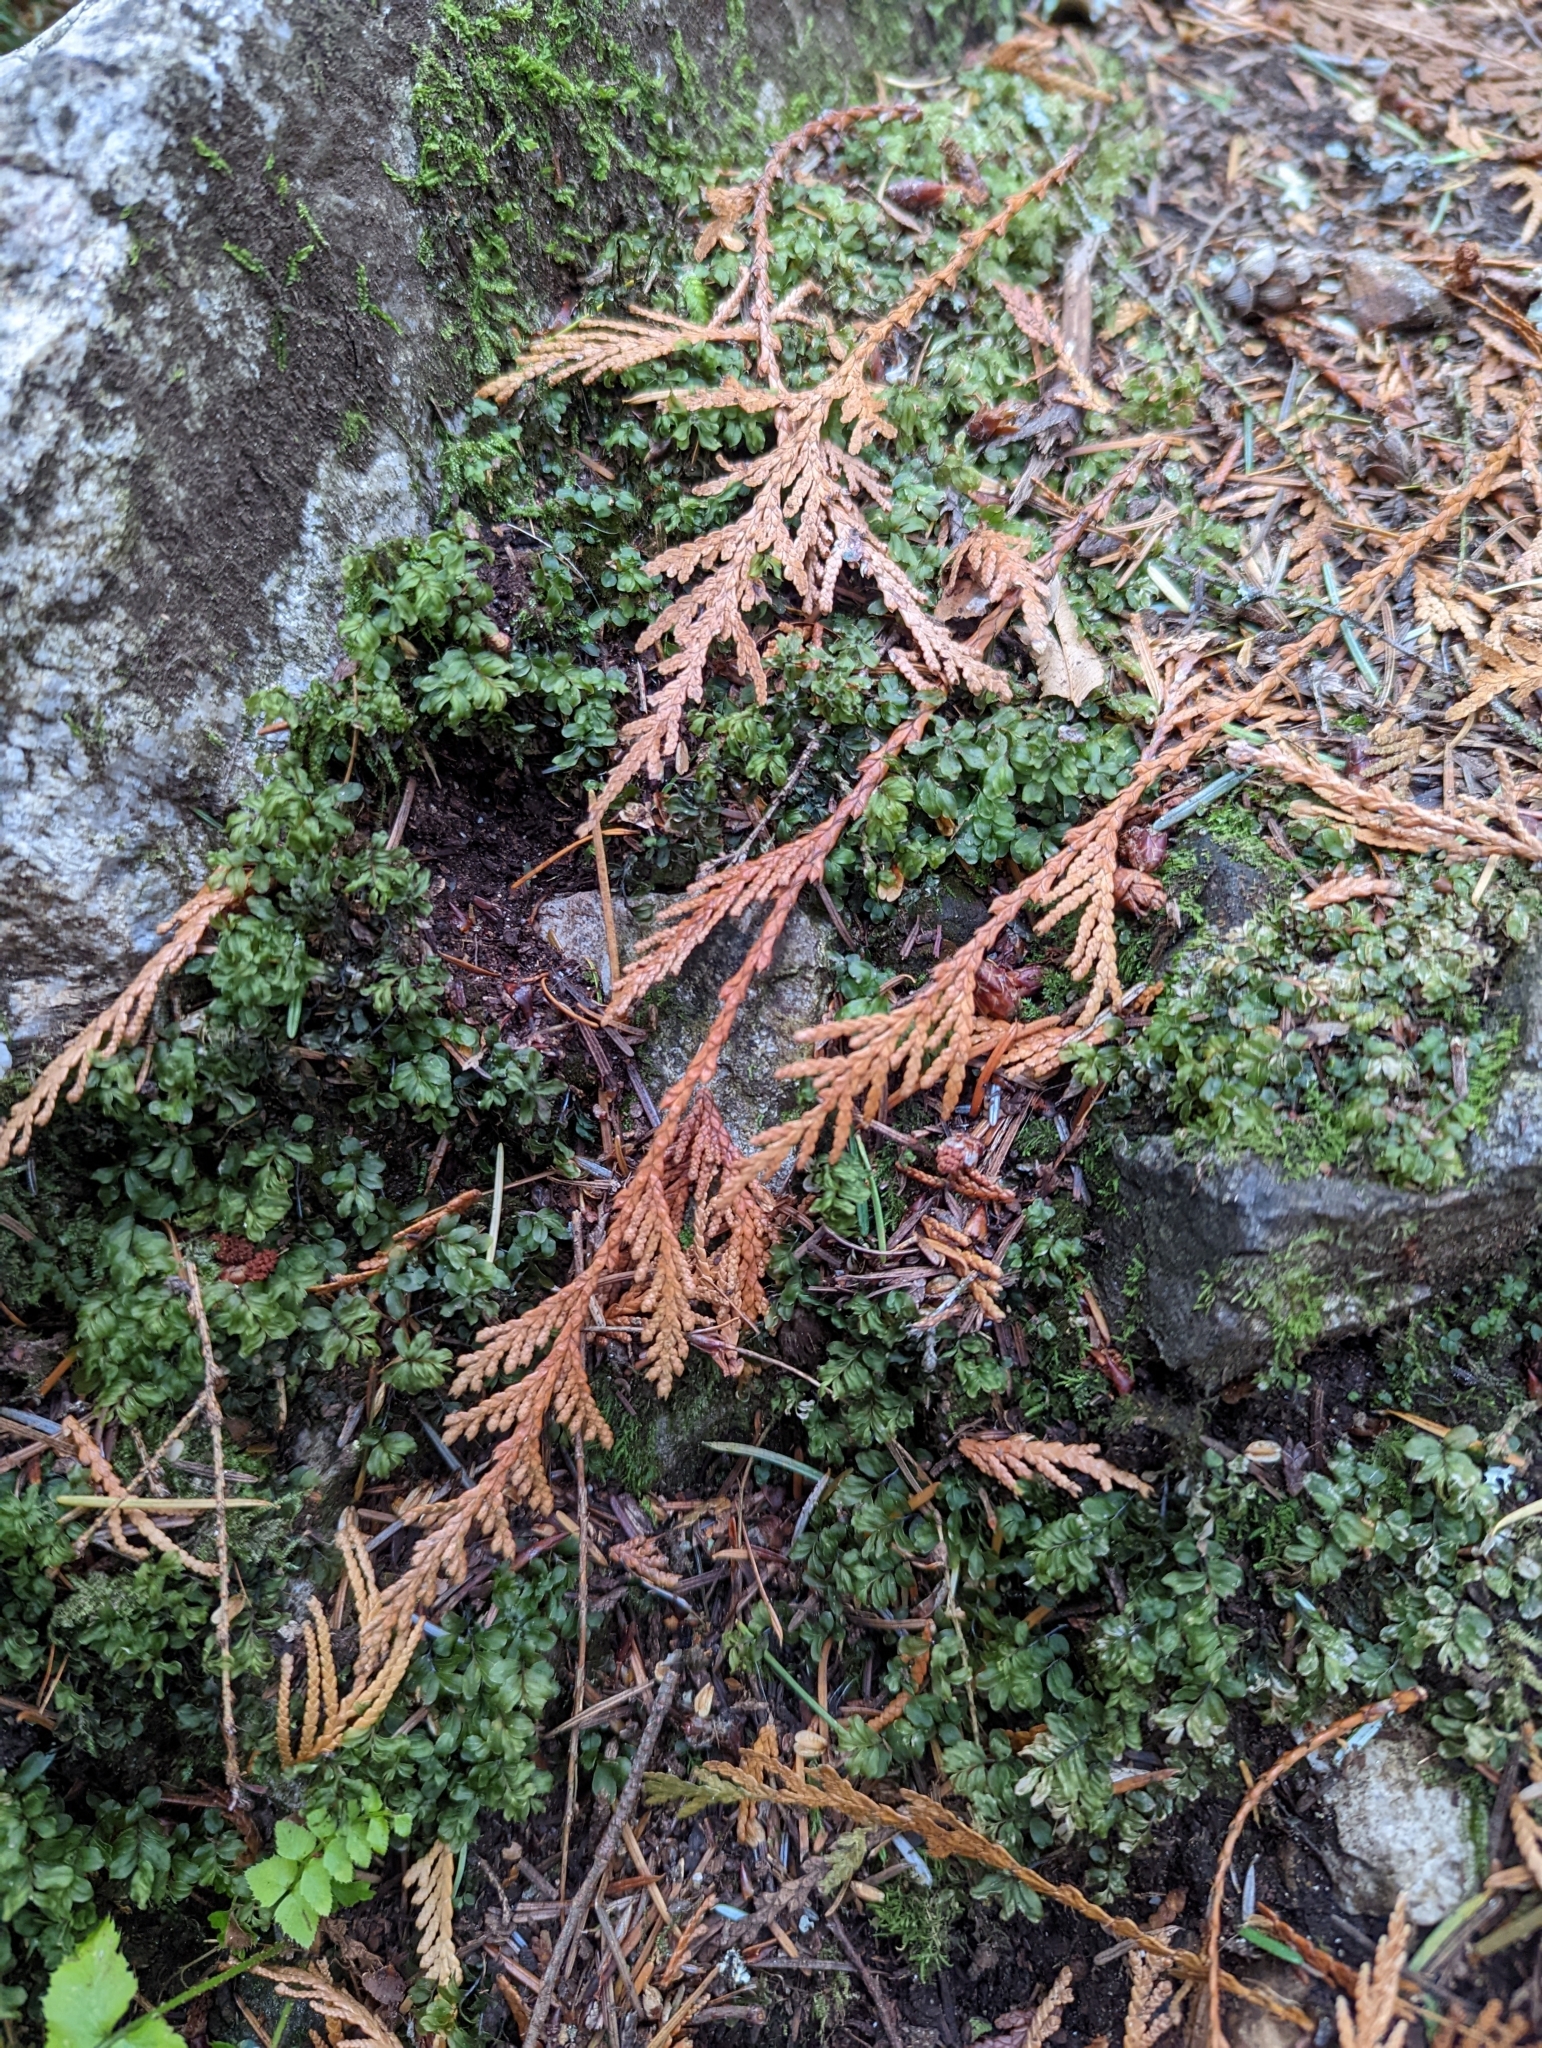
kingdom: Plantae
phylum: Bryophyta
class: Bryopsida
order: Bryales
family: Mniaceae
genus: Rhizomnium
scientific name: Rhizomnium glabrescens
